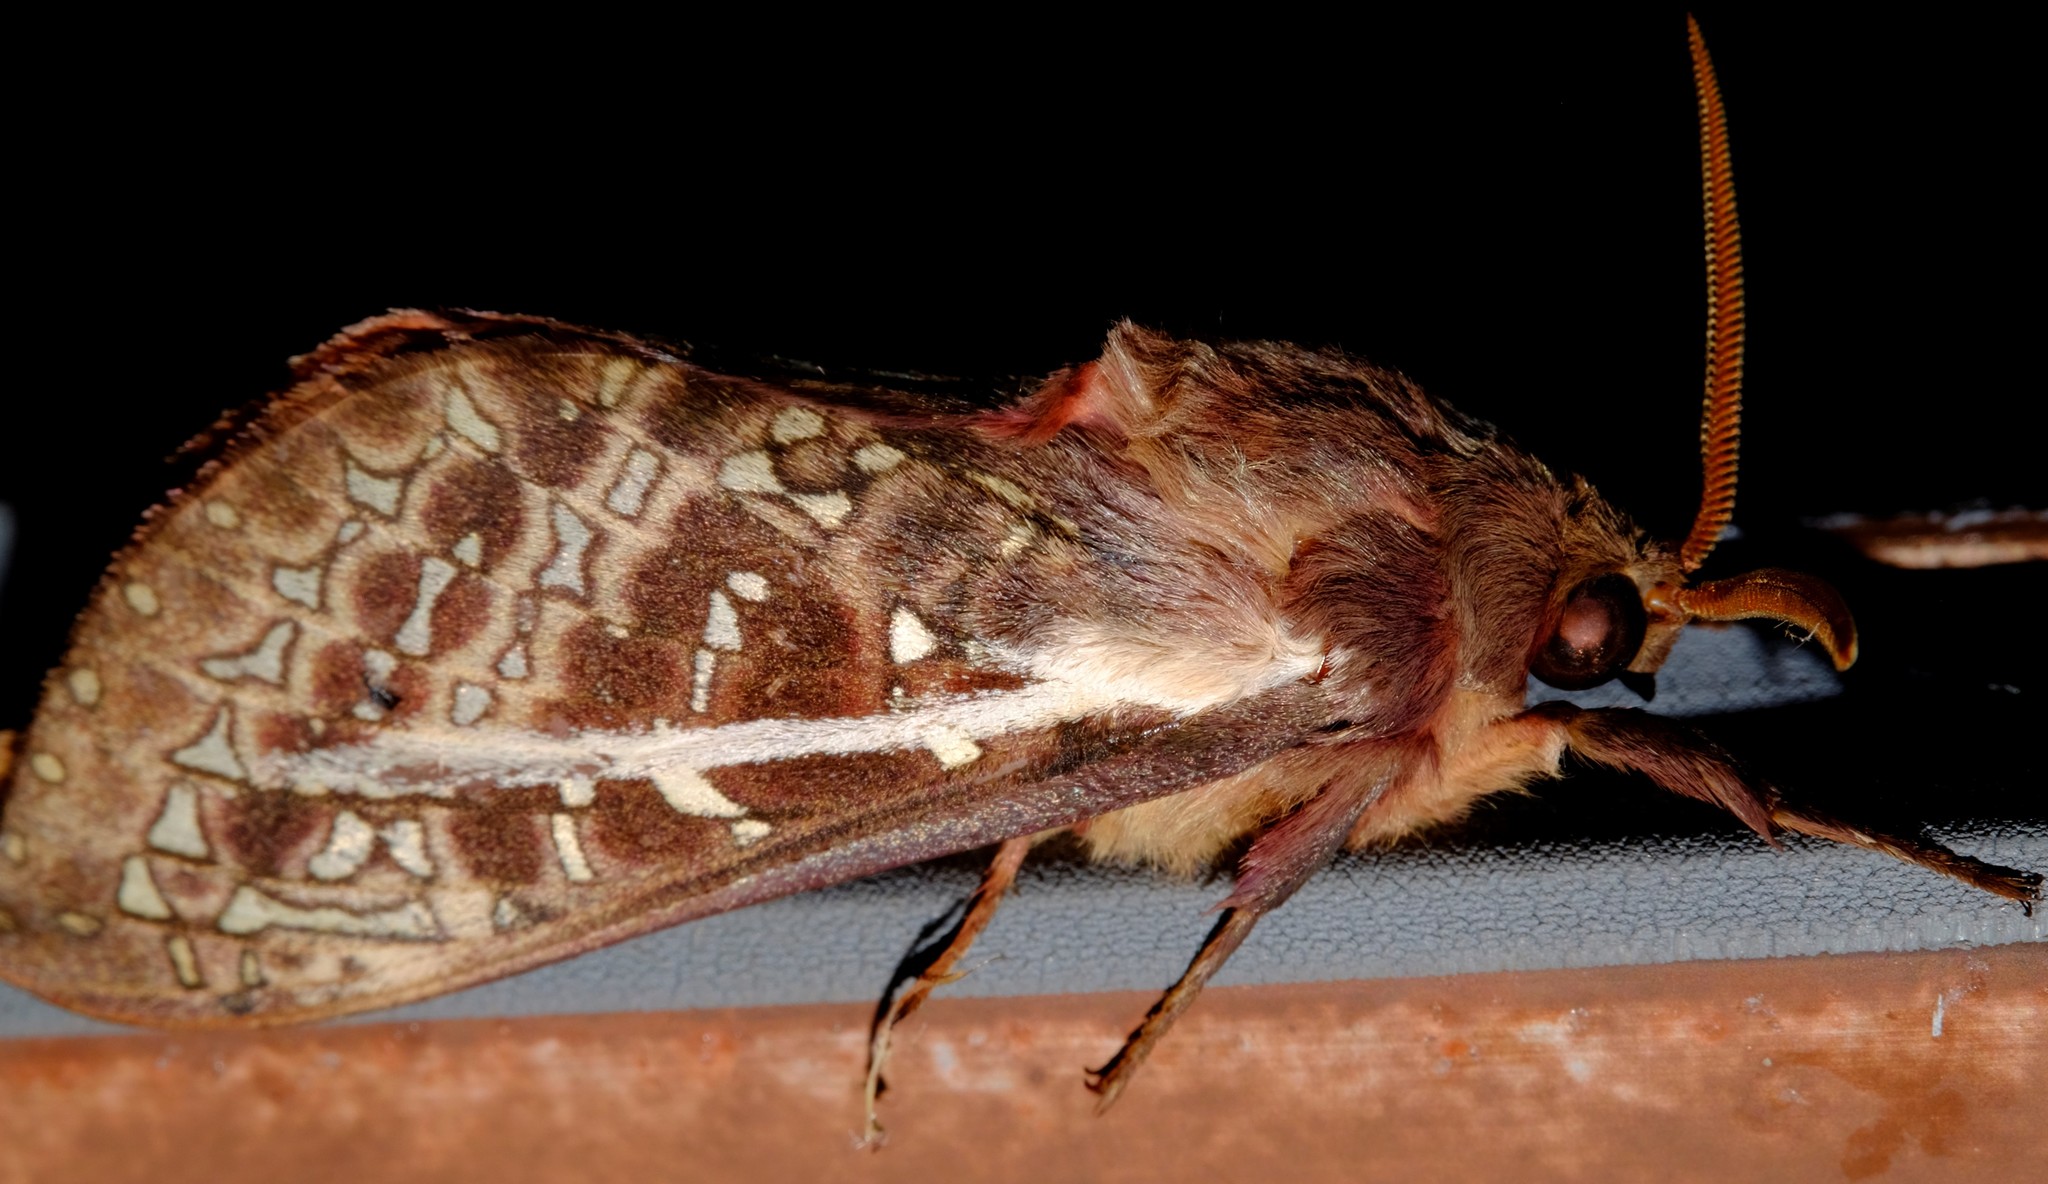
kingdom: Animalia
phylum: Arthropoda
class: Insecta
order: Lepidoptera
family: Hepialidae
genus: Oxycanus
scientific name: Oxycanus australis
